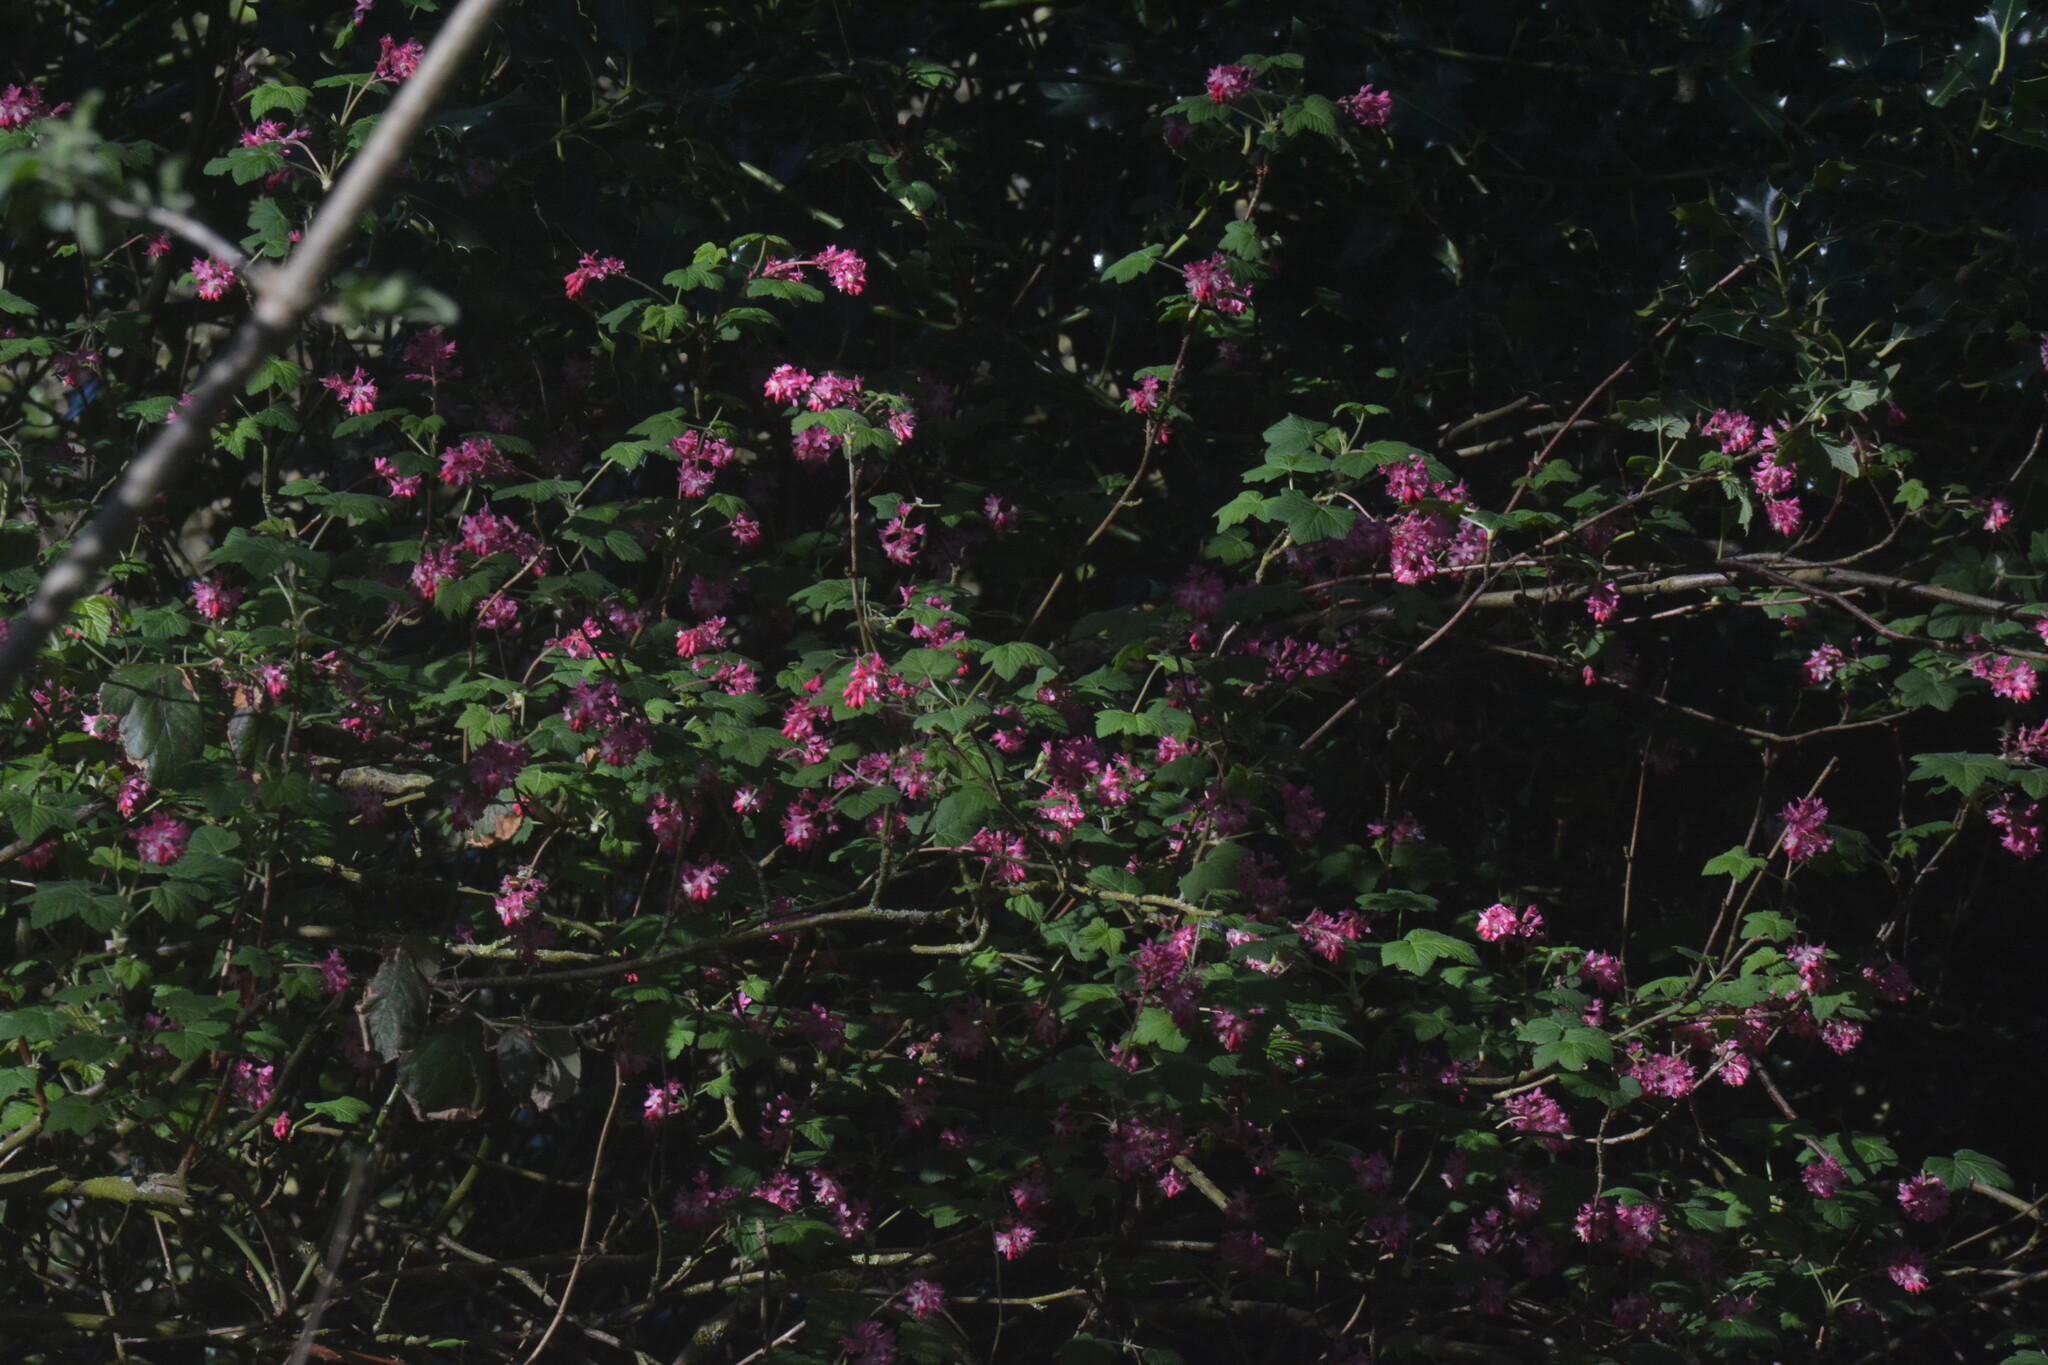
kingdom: Plantae
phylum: Tracheophyta
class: Magnoliopsida
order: Saxifragales
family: Grossulariaceae
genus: Ribes
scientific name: Ribes sanguineum
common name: Flowering currant
